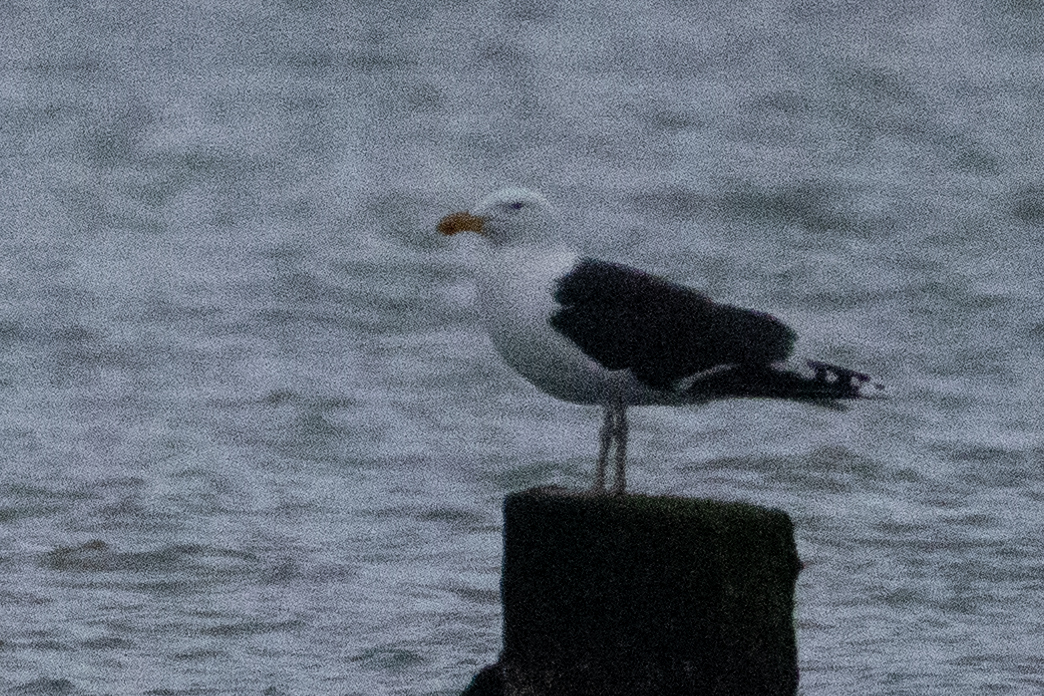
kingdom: Animalia
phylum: Chordata
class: Aves
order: Charadriiformes
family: Laridae
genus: Larus
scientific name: Larus marinus
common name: Great black-backed gull
